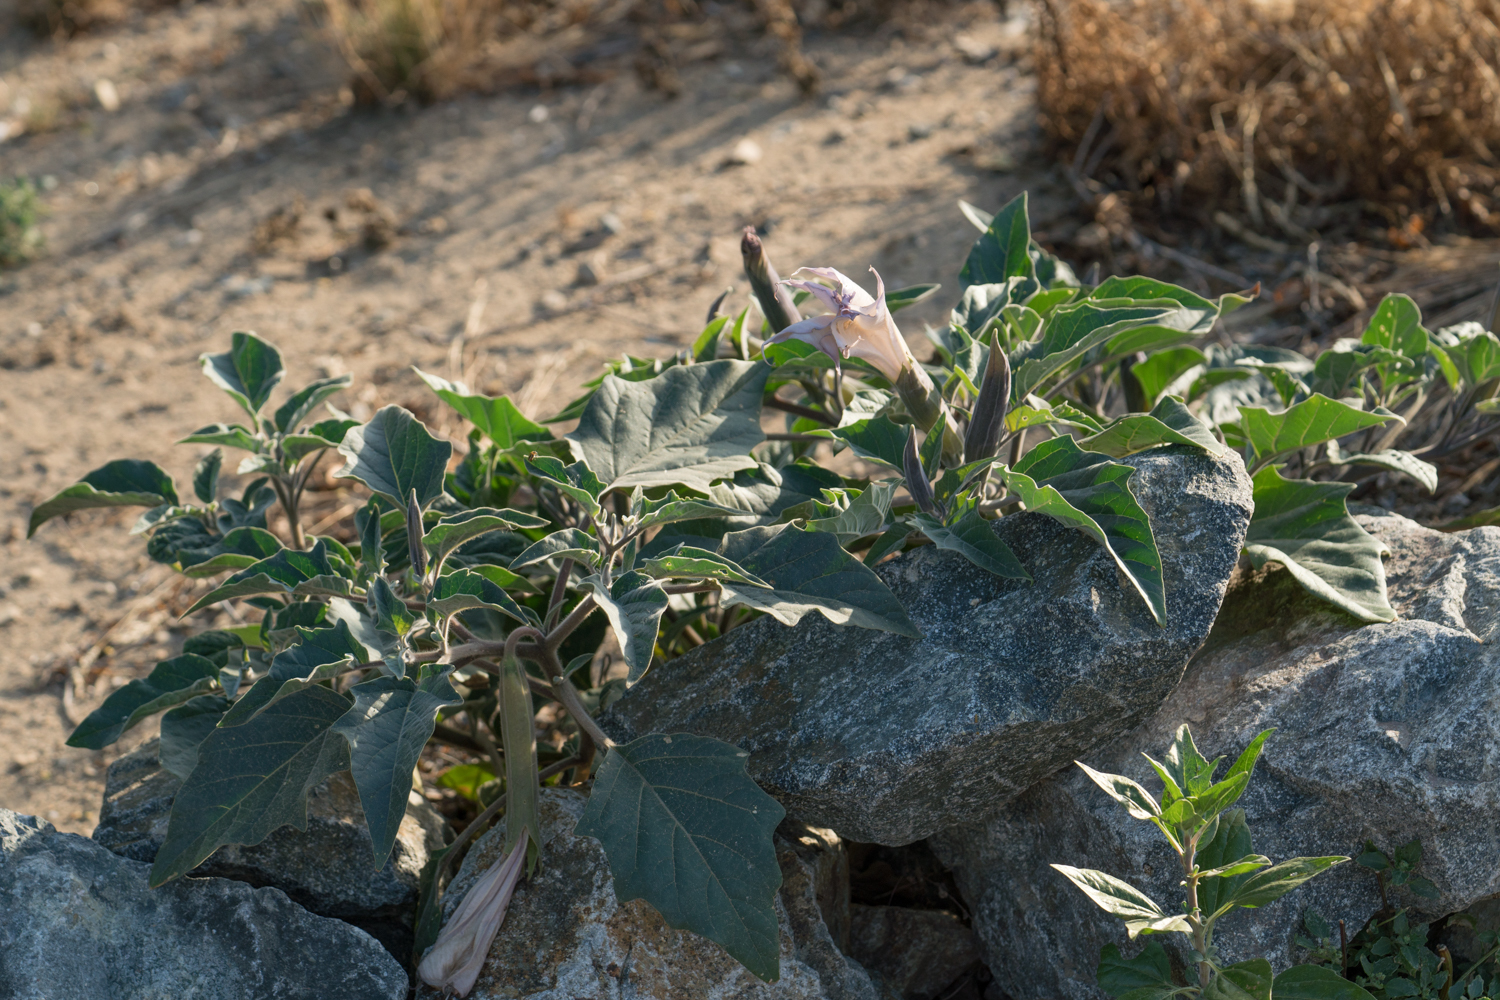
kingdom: Plantae
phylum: Tracheophyta
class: Magnoliopsida
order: Solanales
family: Solanaceae
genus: Datura
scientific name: Datura wrightii
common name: Sacred thorn-apple
